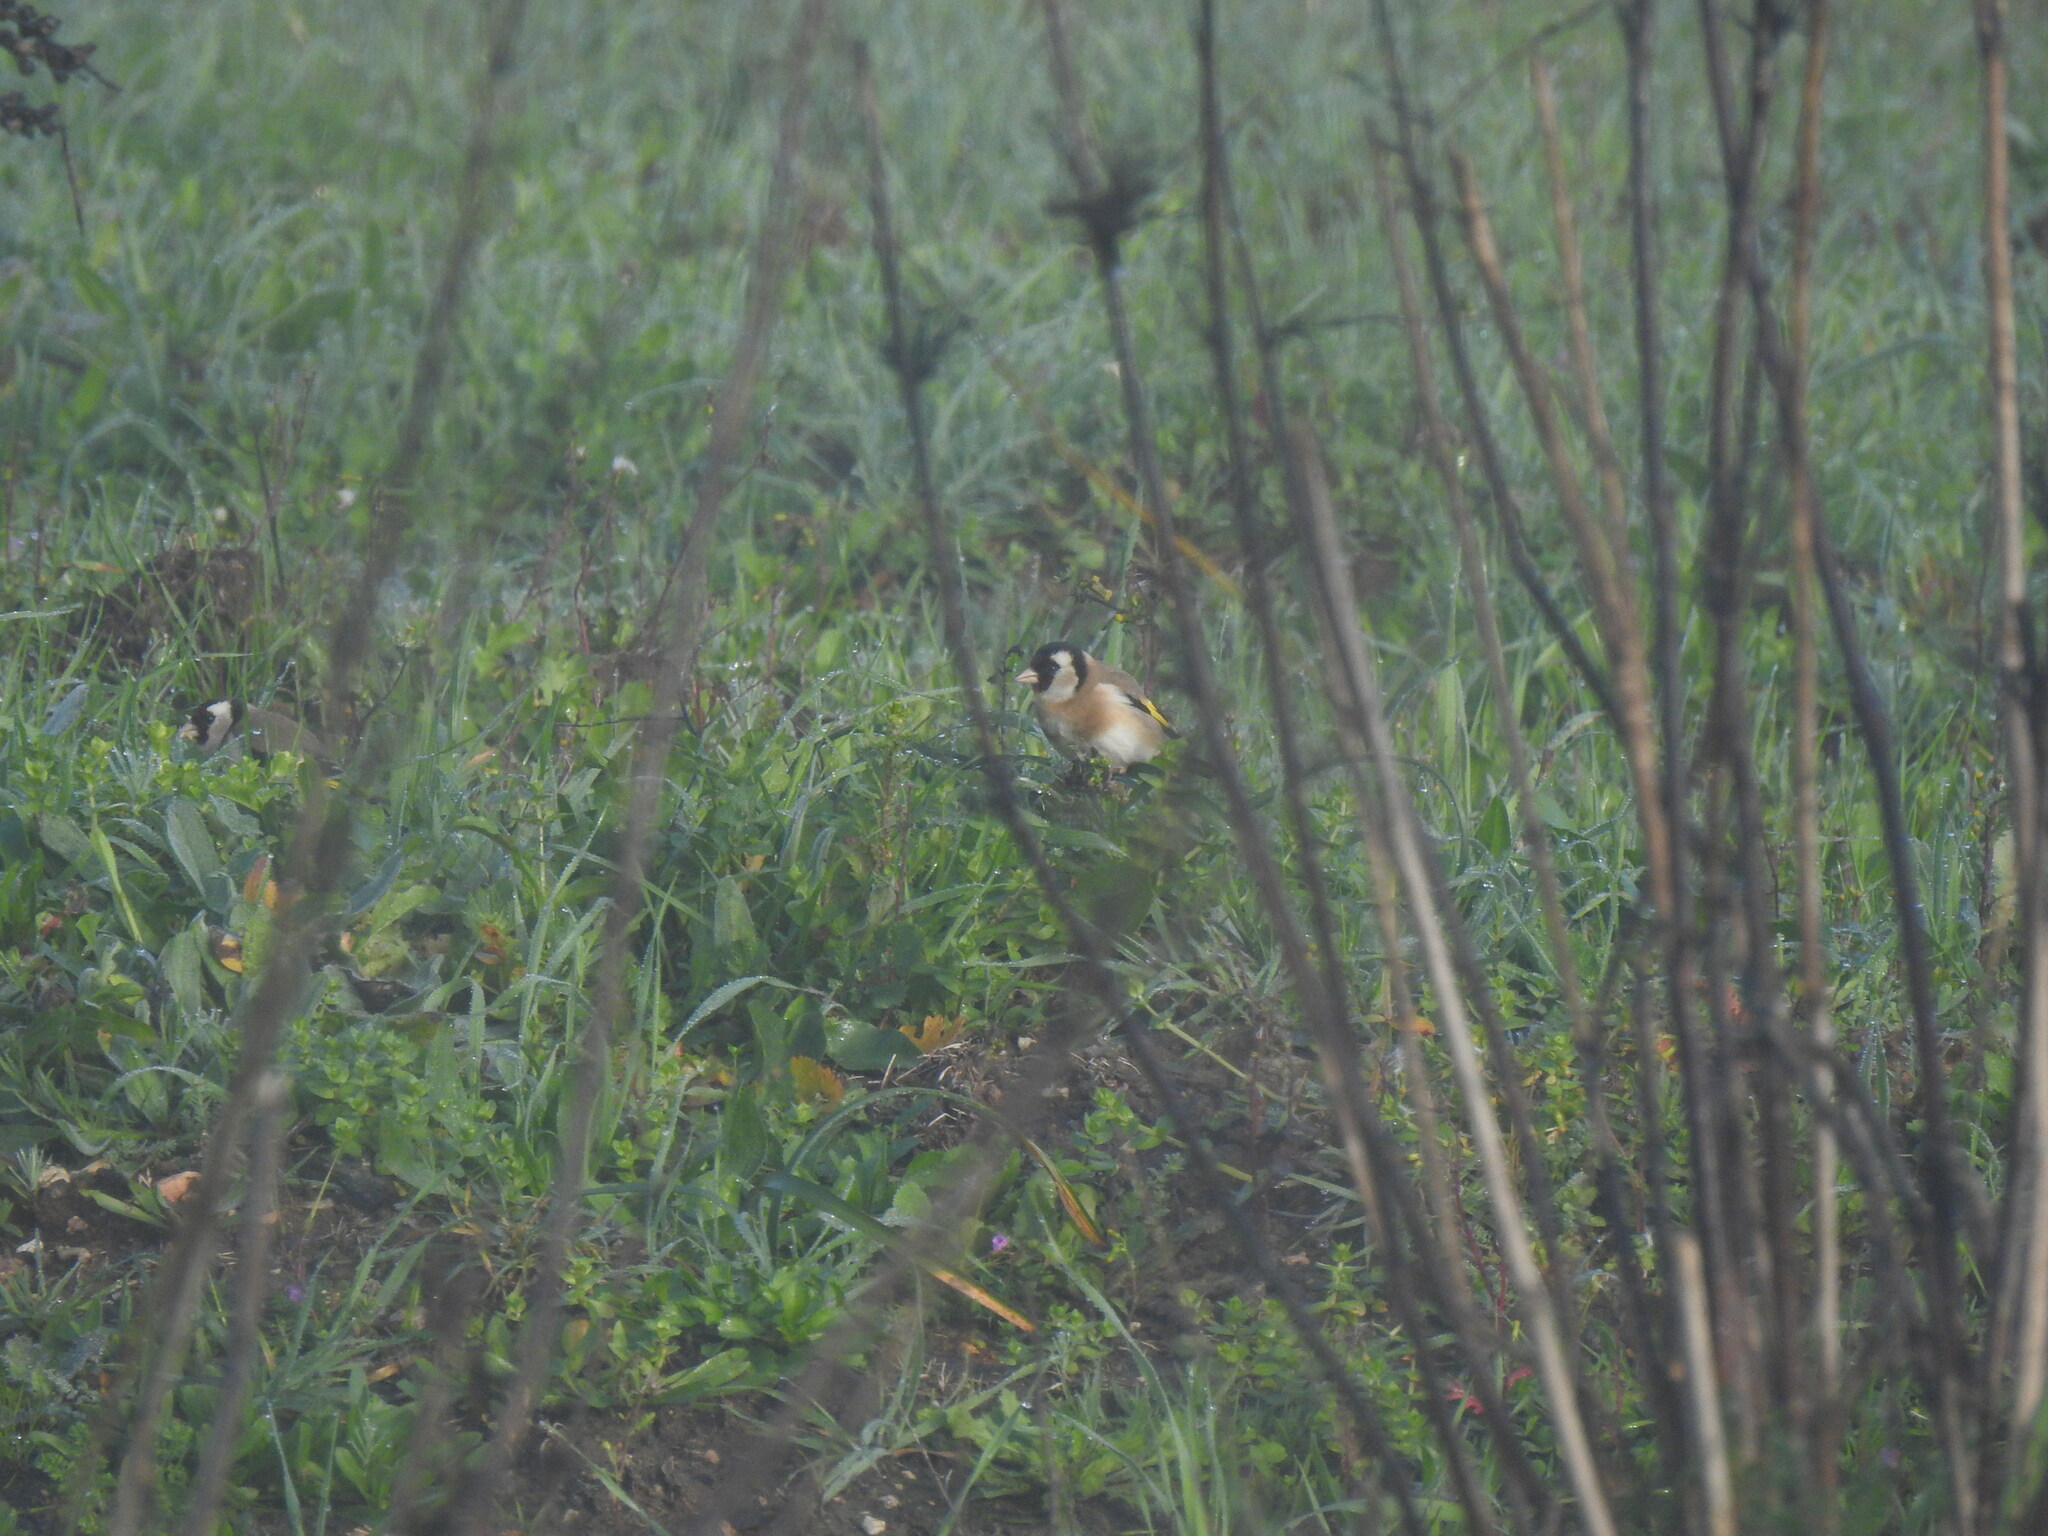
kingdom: Animalia
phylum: Chordata
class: Aves
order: Passeriformes
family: Fringillidae
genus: Carduelis
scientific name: Carduelis carduelis
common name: European goldfinch
